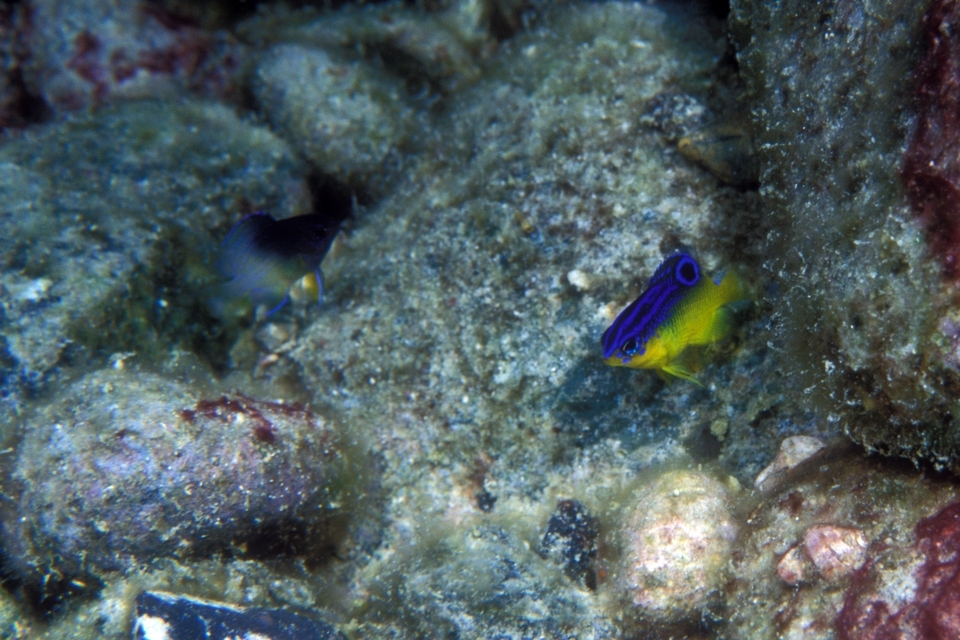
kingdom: Animalia
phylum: Chordata
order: Perciformes
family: Pomacentridae
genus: Stegastes
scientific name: Stegastes partitus
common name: Bicolor damselfish
